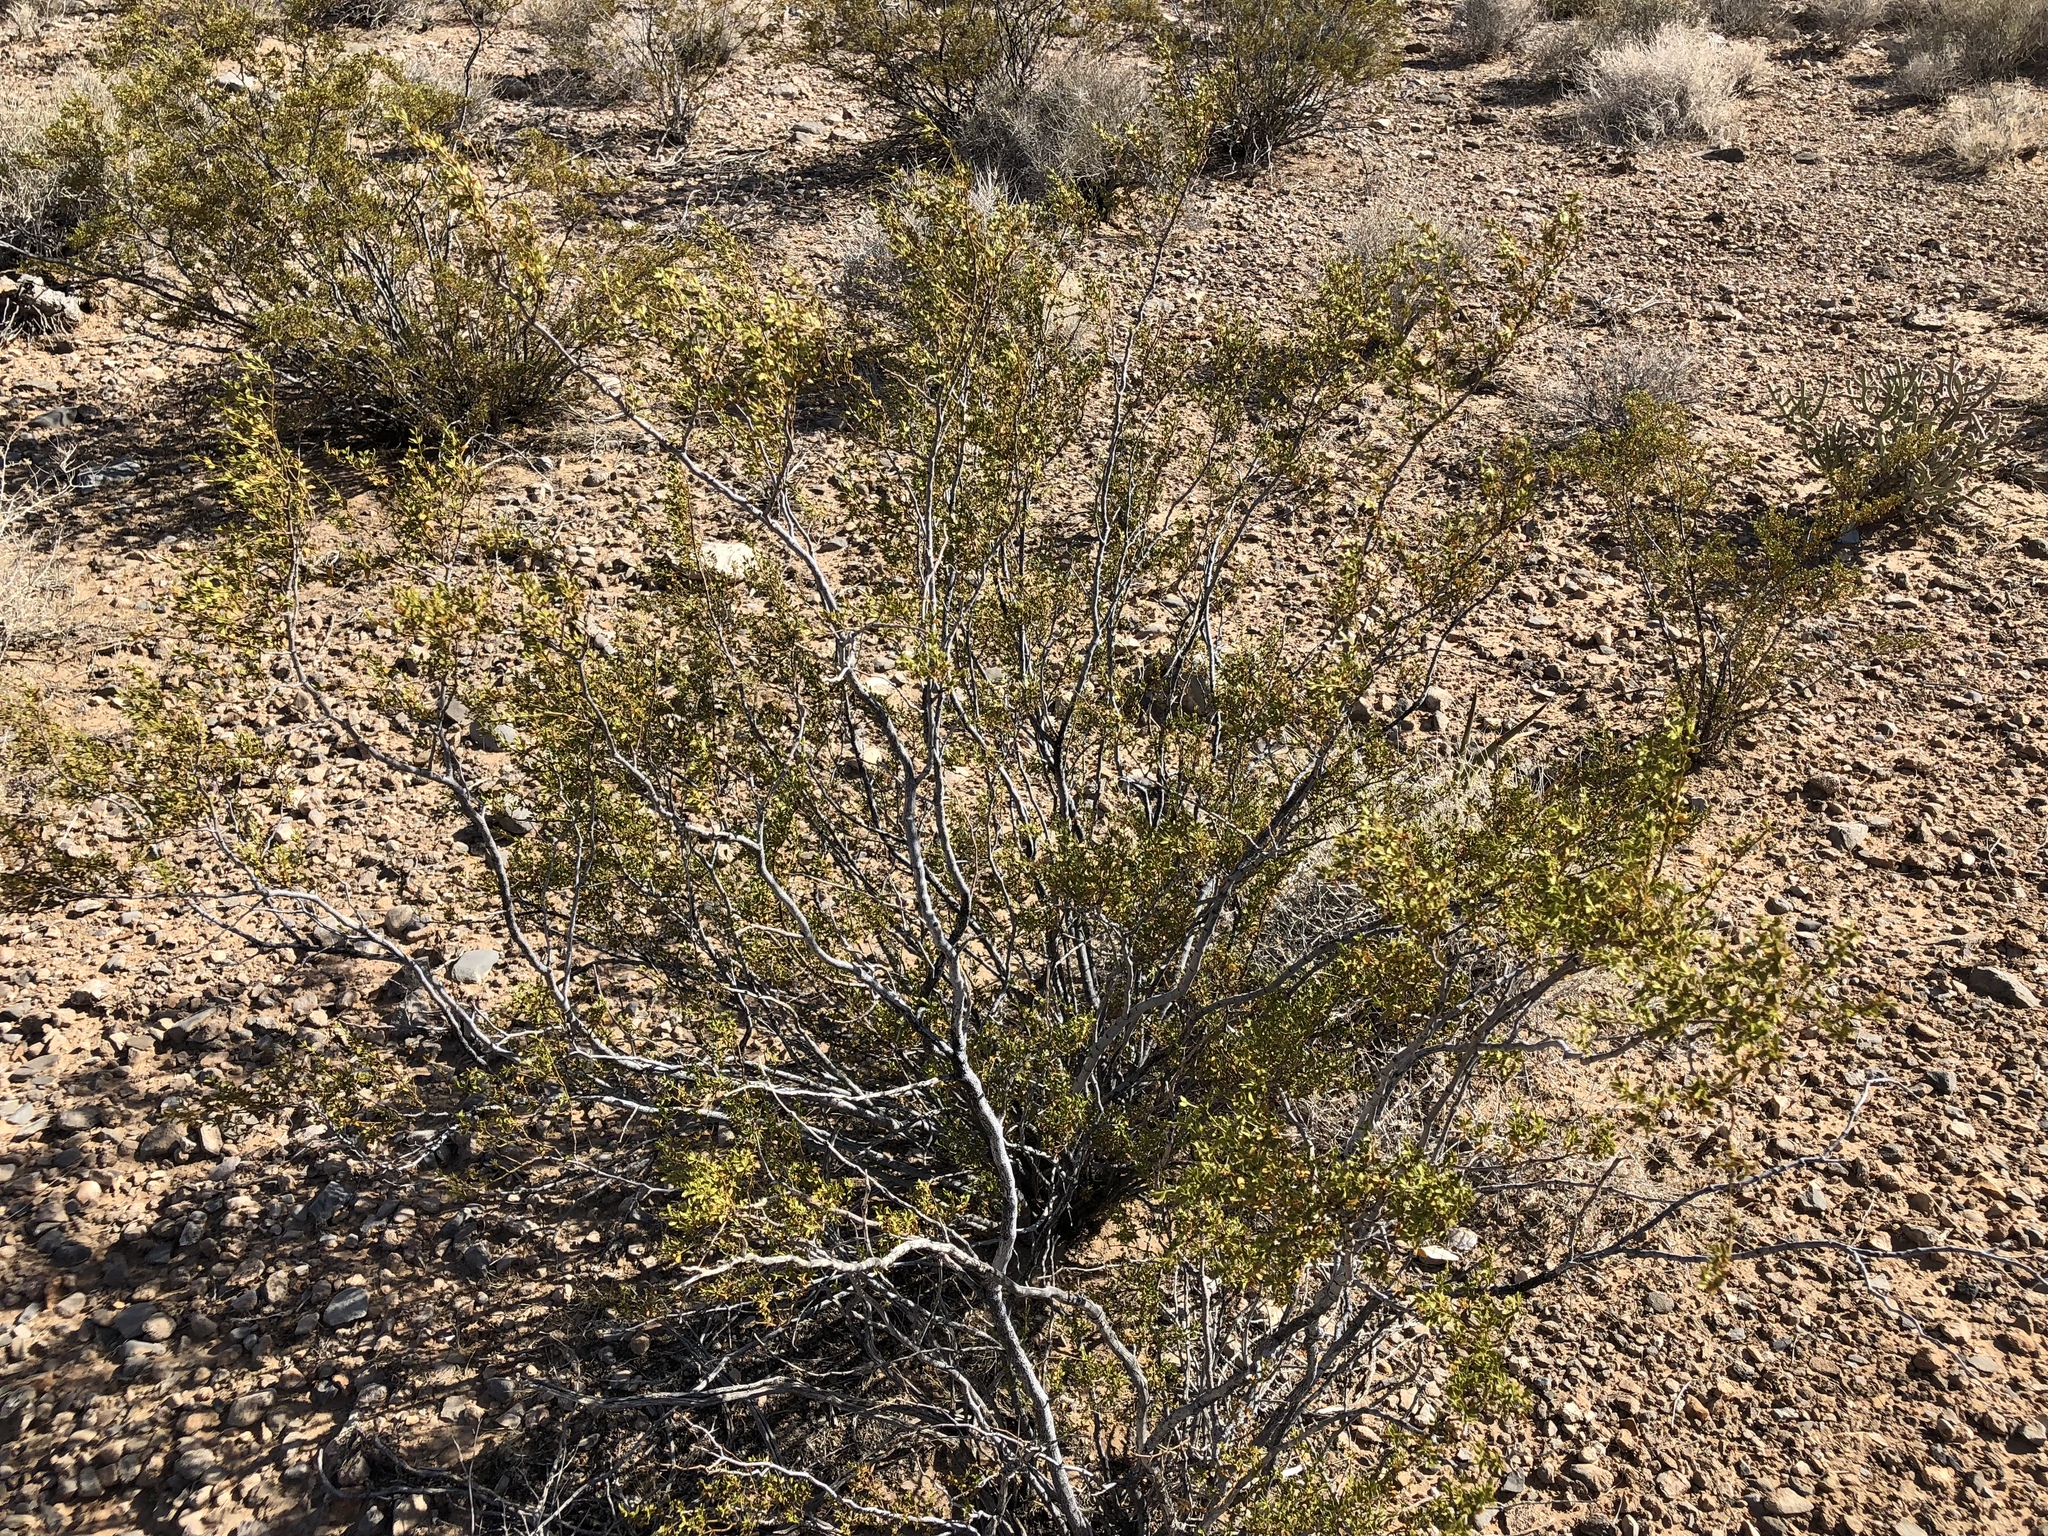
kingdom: Plantae
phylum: Tracheophyta
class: Magnoliopsida
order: Zygophyllales
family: Zygophyllaceae
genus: Larrea
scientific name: Larrea tridentata
